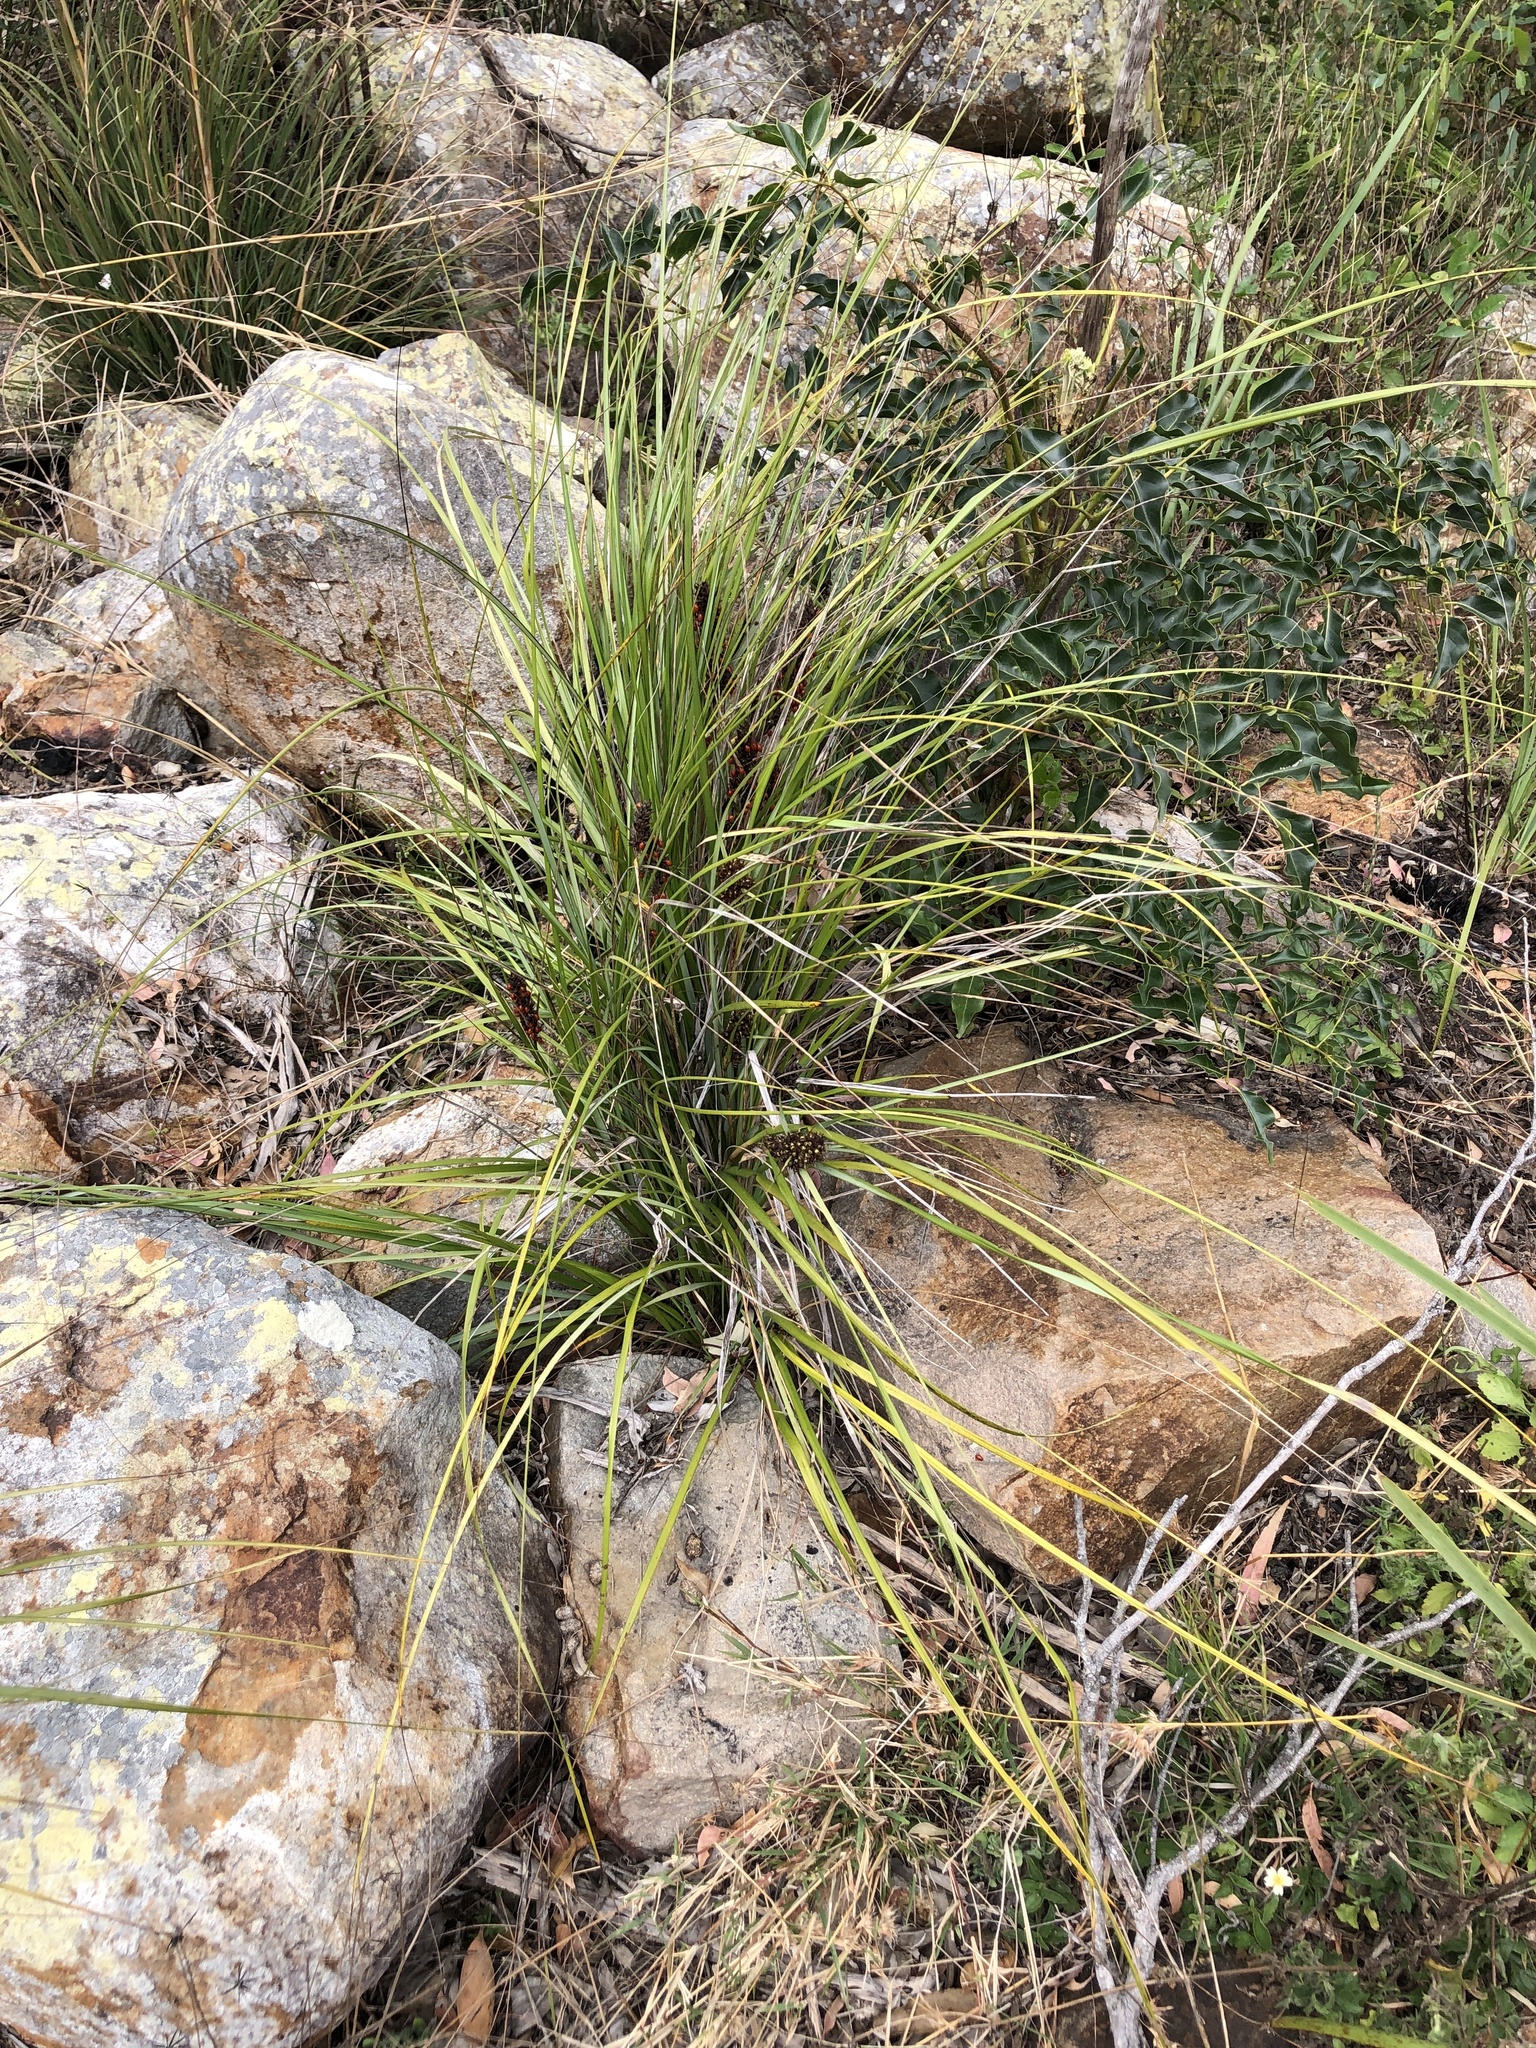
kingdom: Plantae
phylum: Tracheophyta
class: Liliopsida
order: Poales
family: Cyperaceae
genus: Gahnia
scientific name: Gahnia aspera
